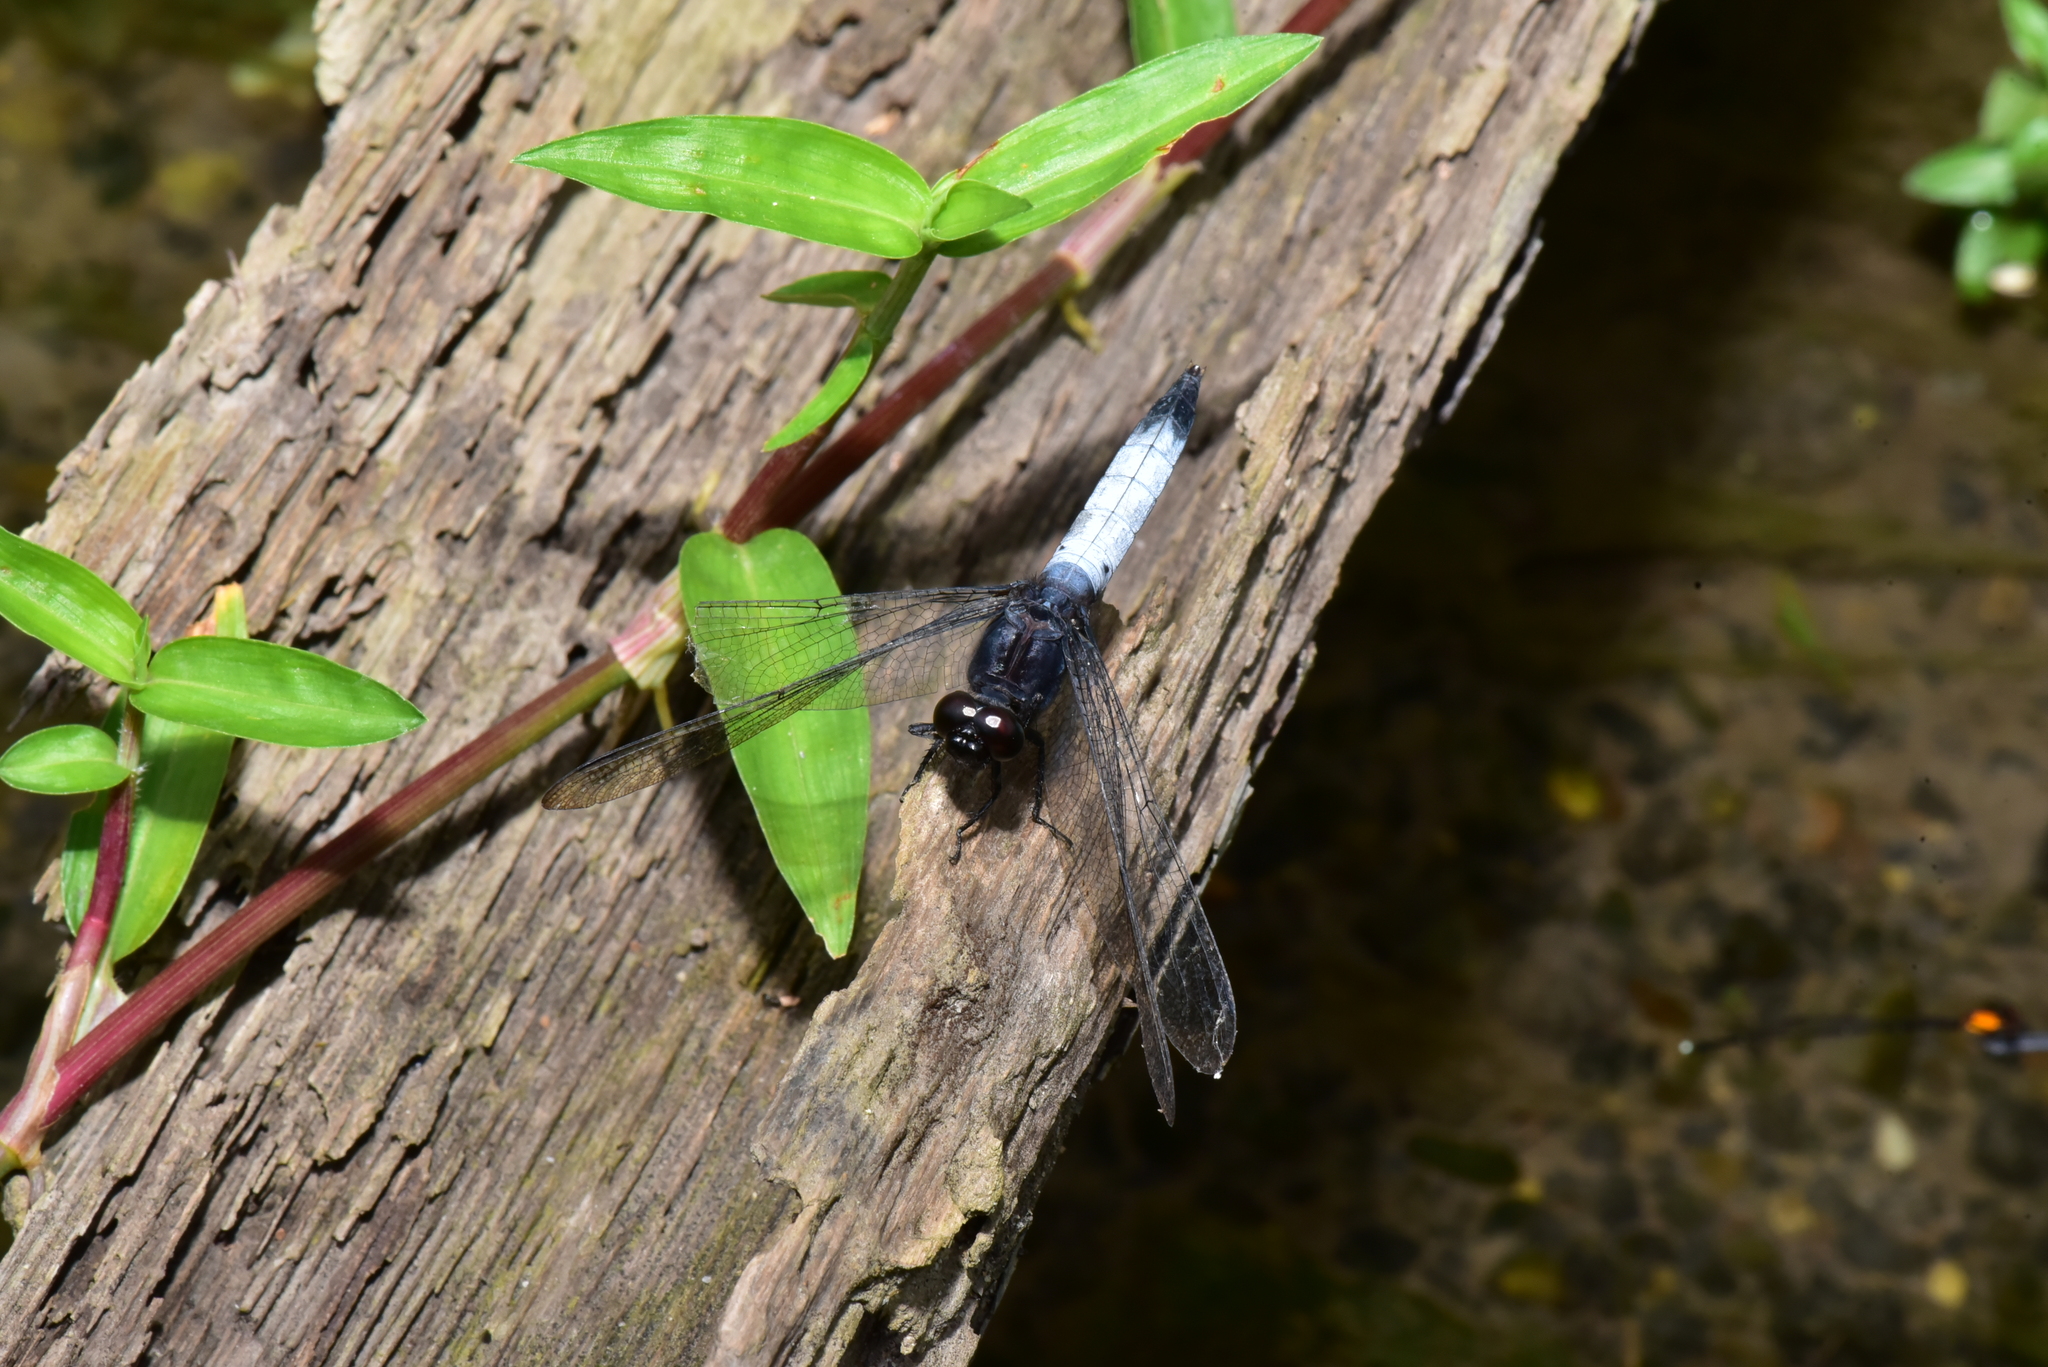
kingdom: Animalia
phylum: Arthropoda
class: Insecta
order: Odonata
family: Libellulidae
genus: Orthetrum
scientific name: Orthetrum triangulare
